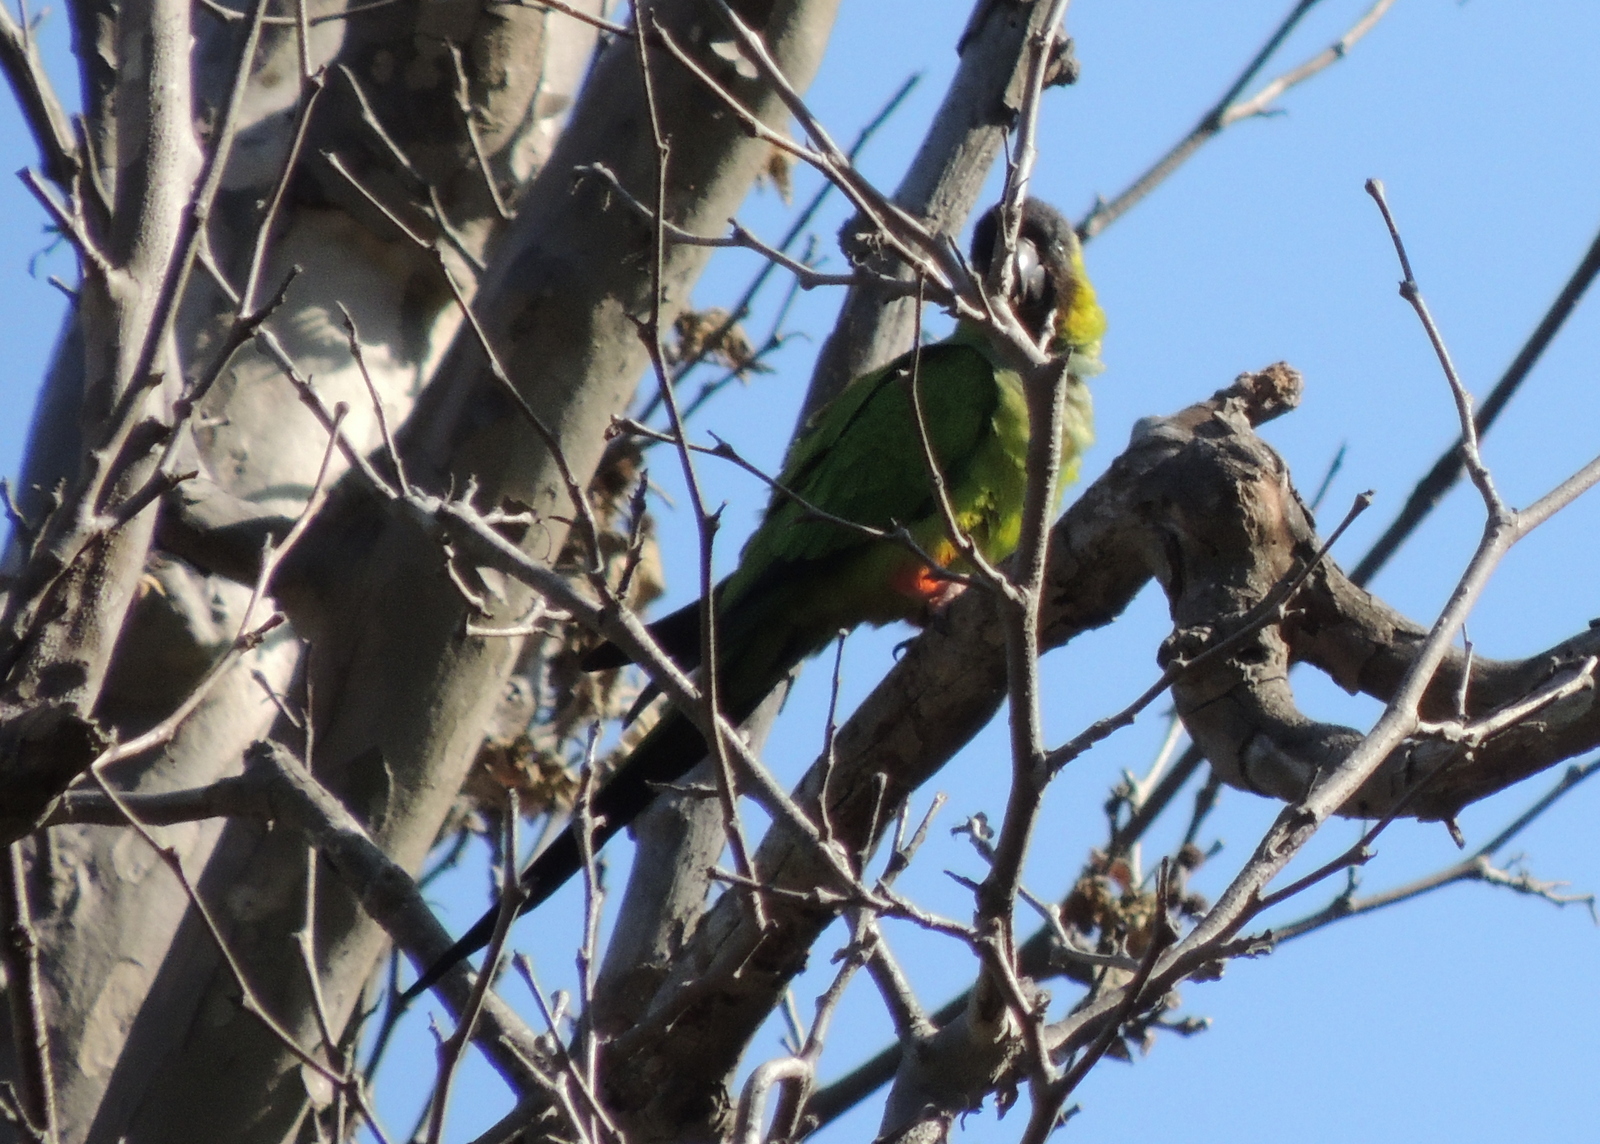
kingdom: Animalia
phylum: Chordata
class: Aves
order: Psittaciformes
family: Psittacidae
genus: Nandayus
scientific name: Nandayus nenday
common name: Nanday parakeet
